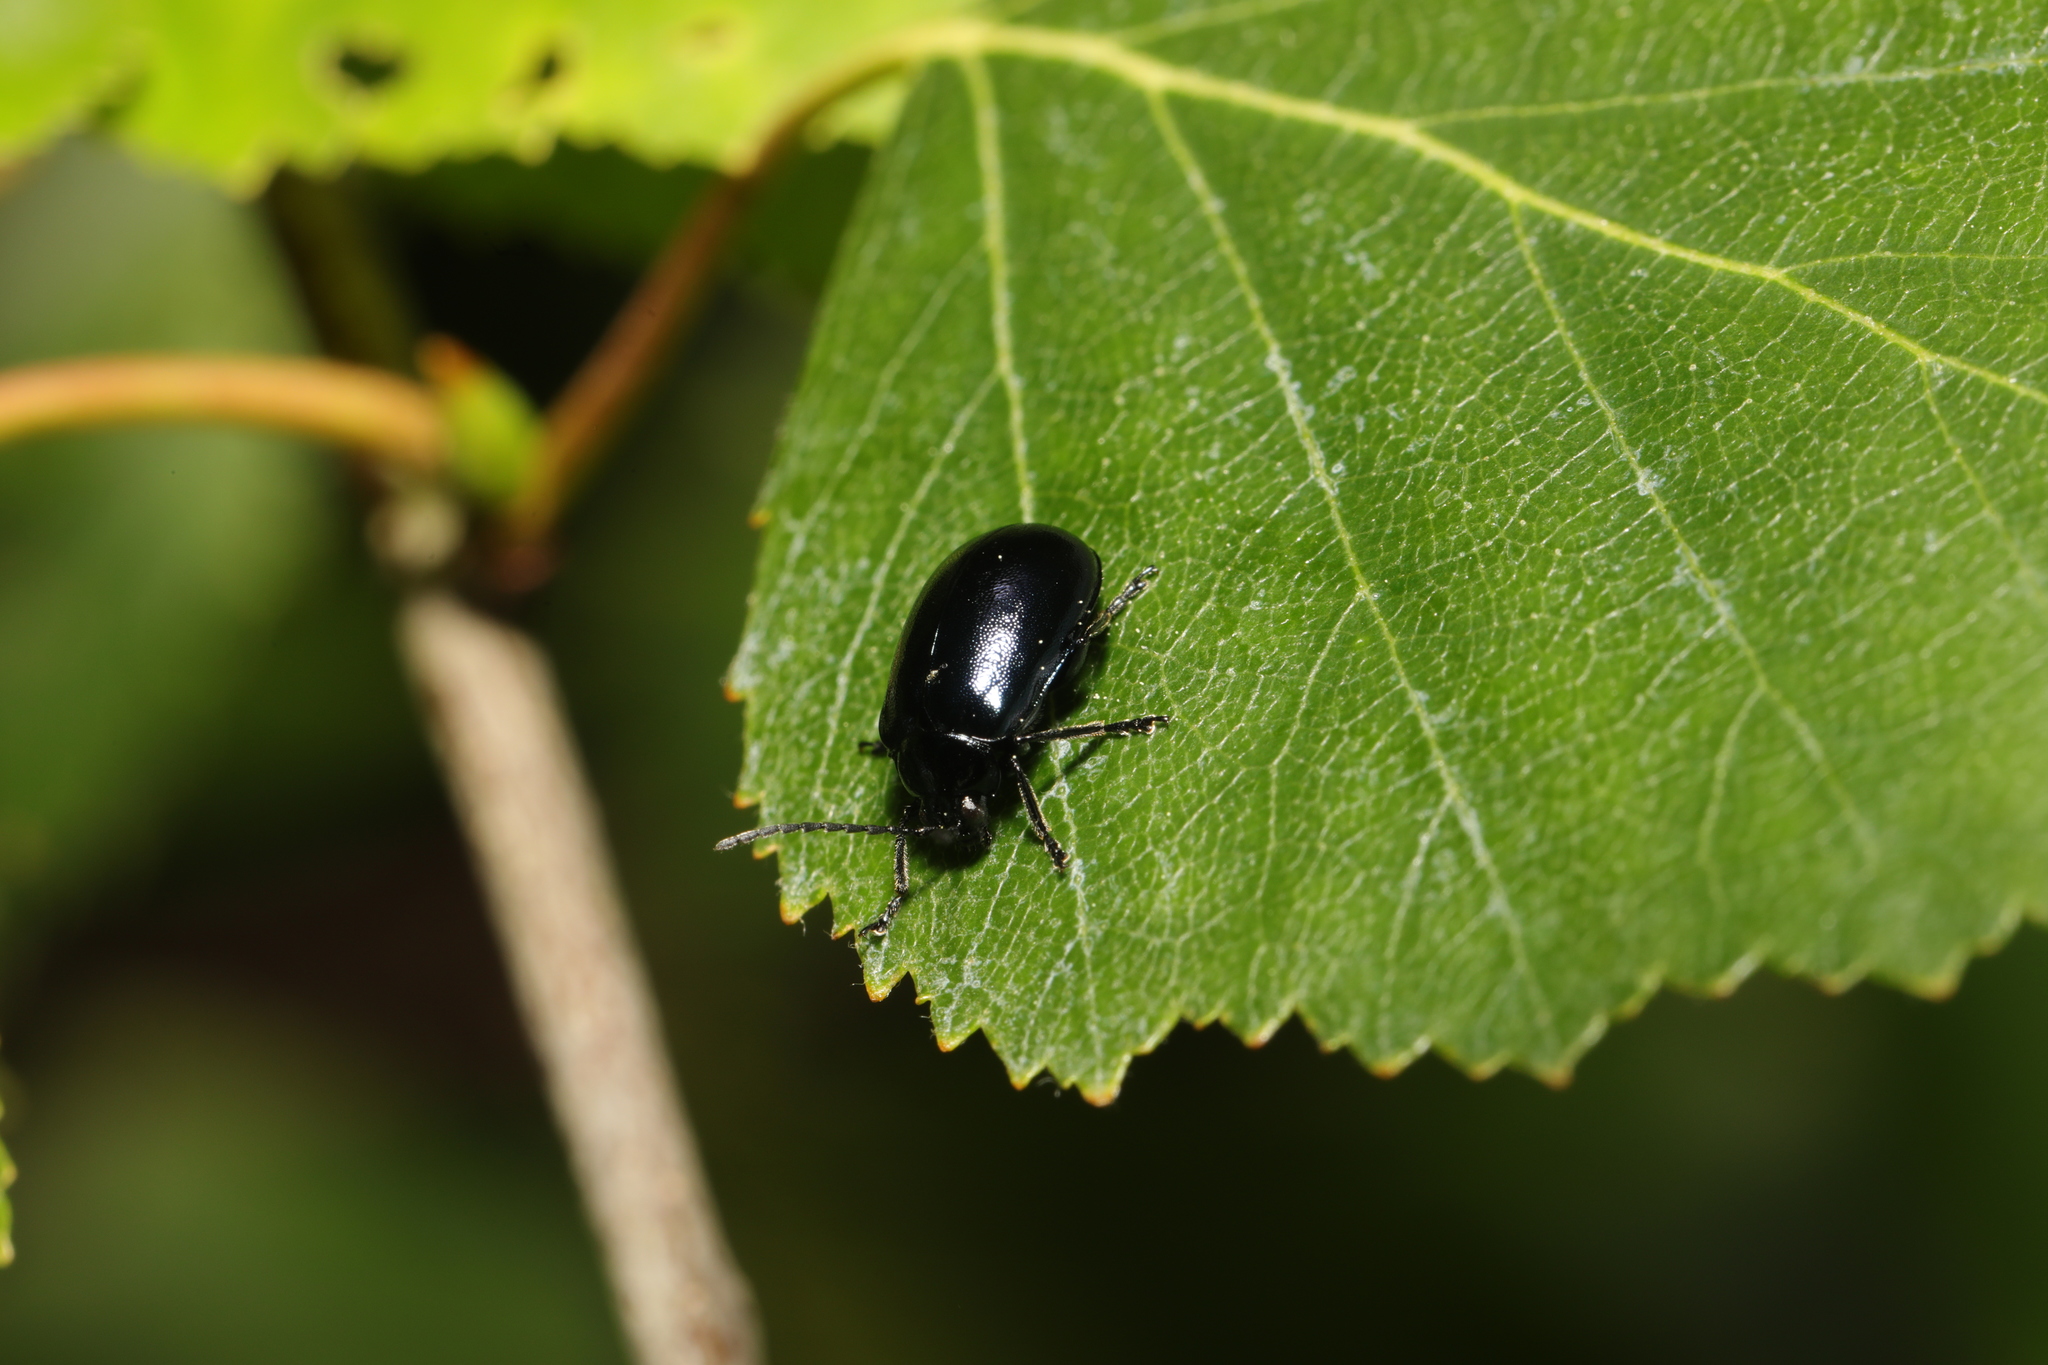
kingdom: Animalia
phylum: Arthropoda
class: Insecta
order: Coleoptera
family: Chrysomelidae
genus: Agelastica
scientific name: Agelastica alni
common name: Alder leaf beetle
